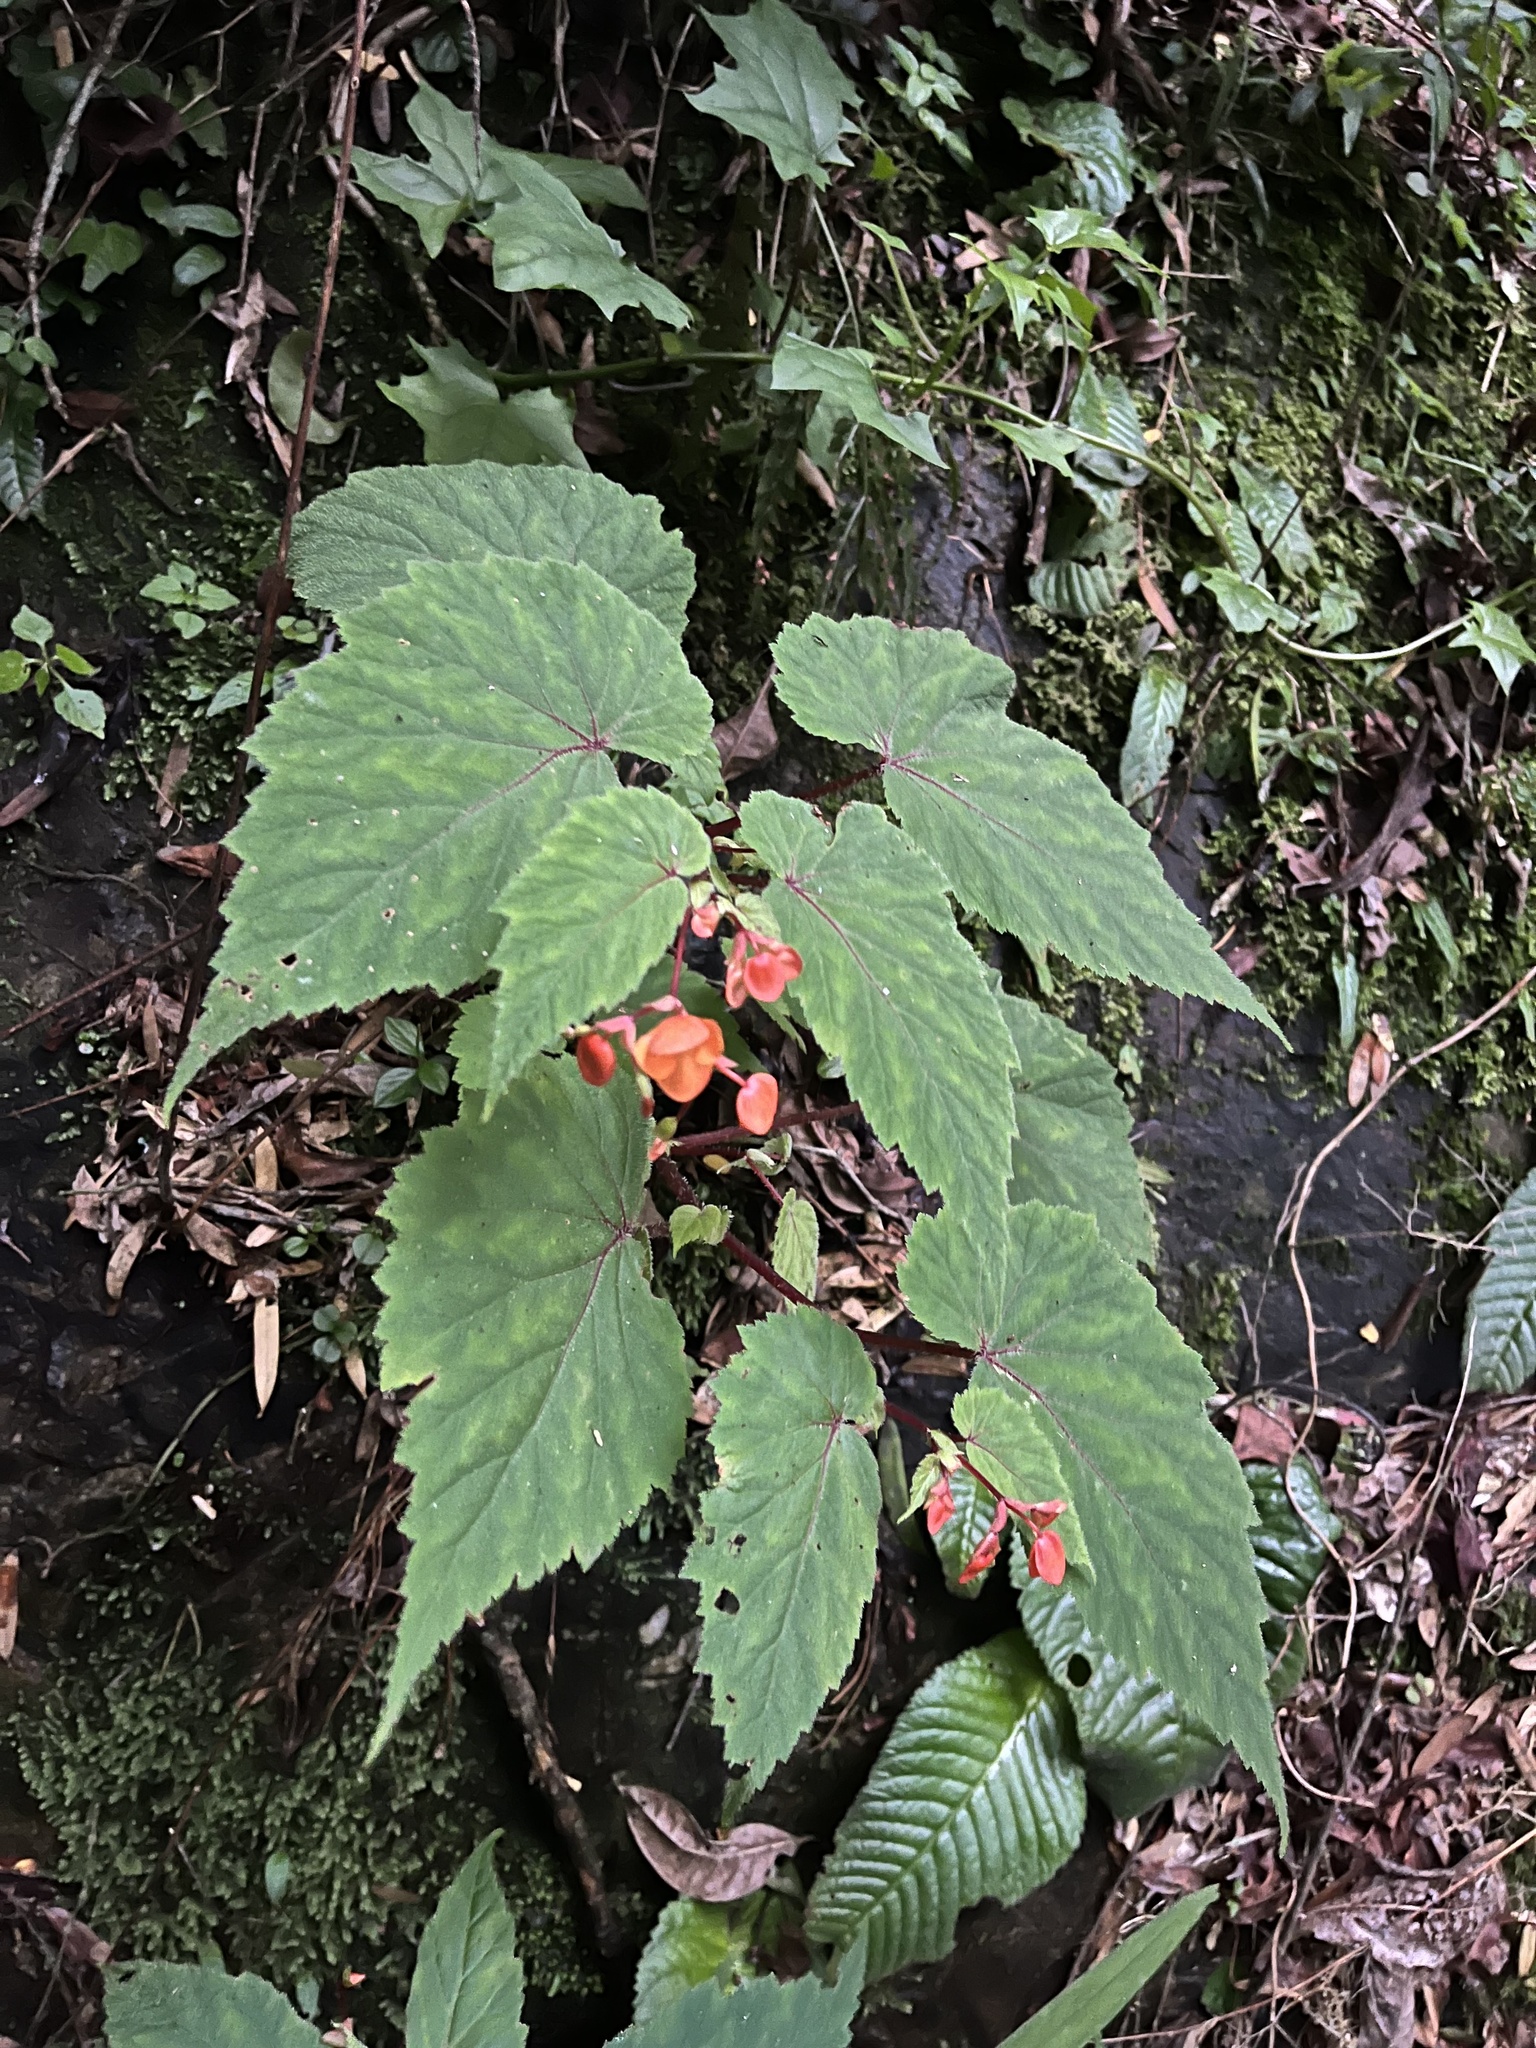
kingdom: Plantae
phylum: Tracheophyta
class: Magnoliopsida
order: Cucurbitales
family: Begoniaceae
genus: Begonia
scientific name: Begonia sutherlandii
